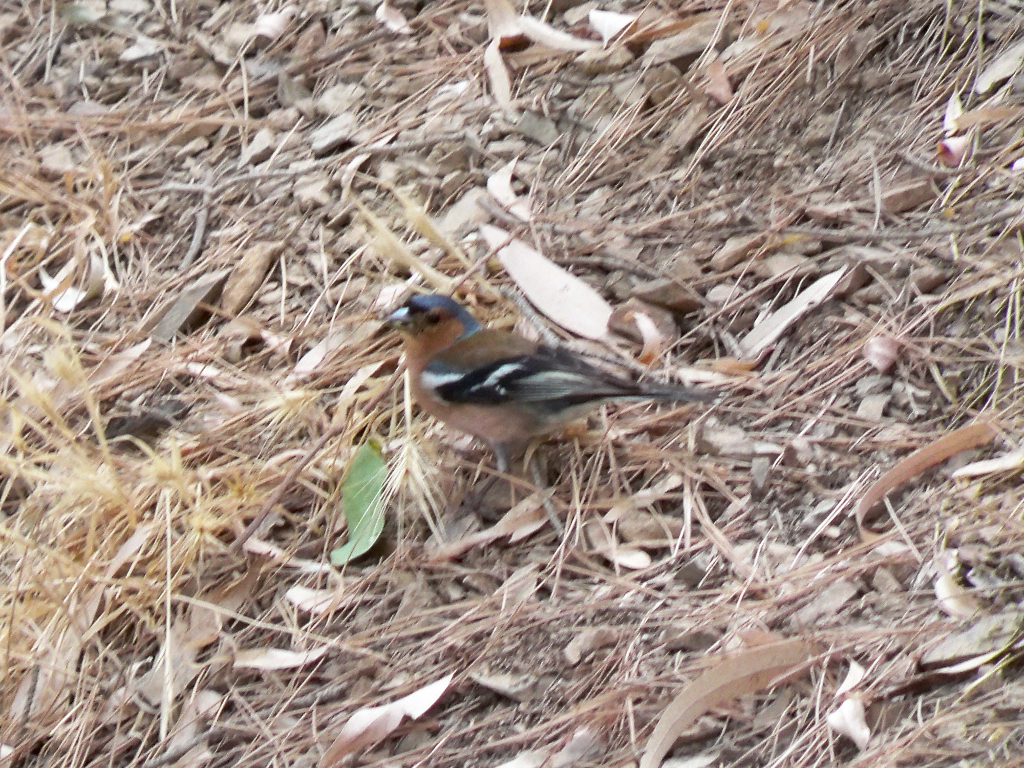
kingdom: Animalia
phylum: Chordata
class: Aves
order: Passeriformes
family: Fringillidae
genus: Fringilla
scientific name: Fringilla coelebs
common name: Common chaffinch
